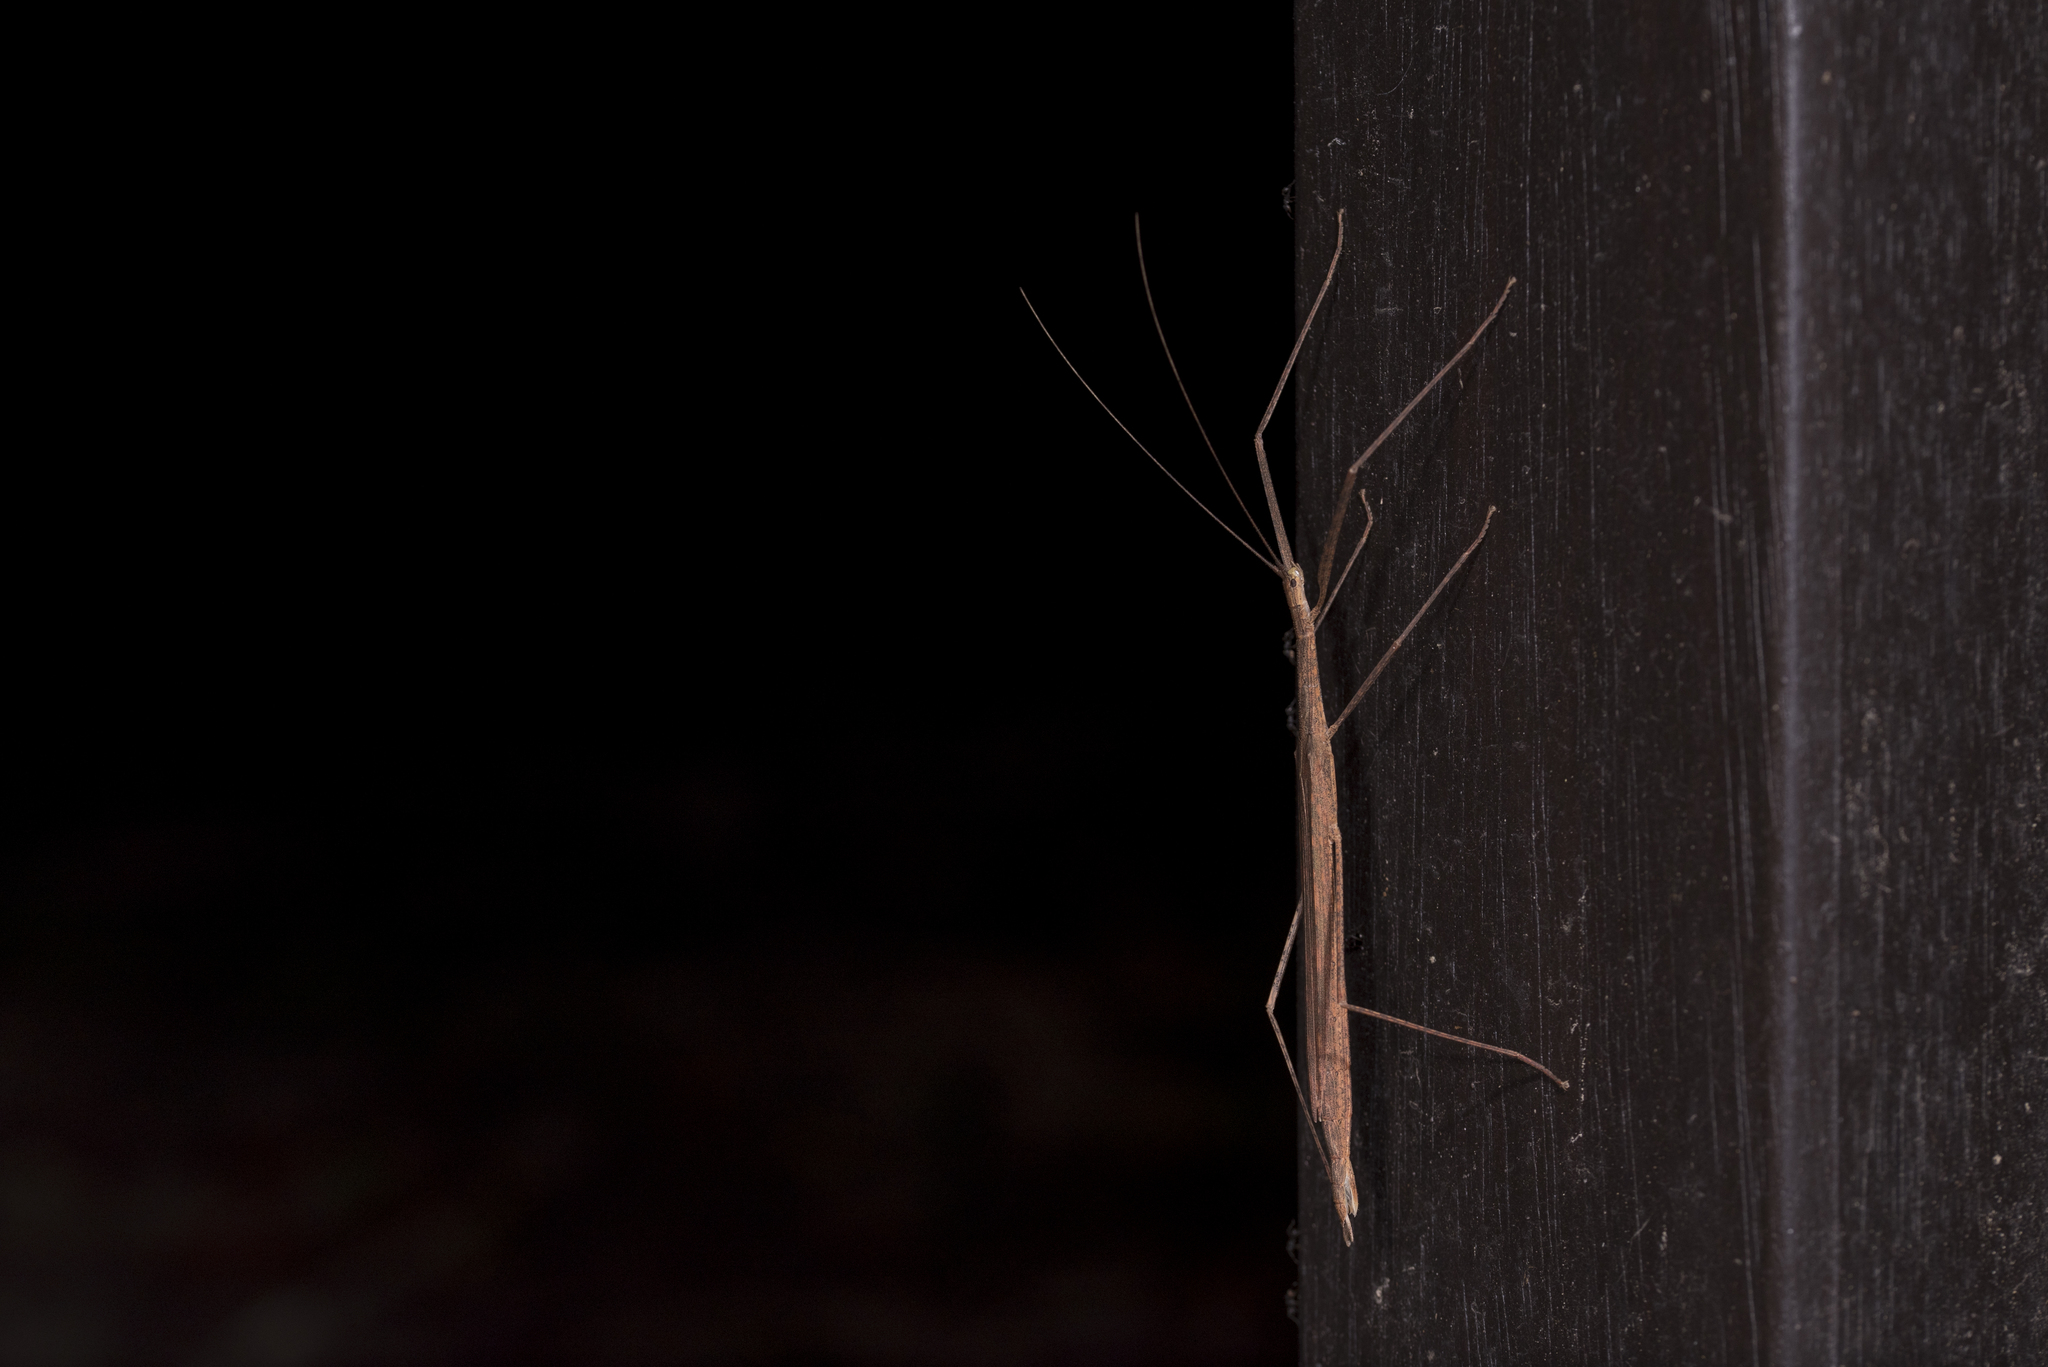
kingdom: Animalia
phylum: Arthropoda
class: Insecta
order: Phasmida
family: Lonchodidae
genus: Sipyloidea
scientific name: Sipyloidea sipylus
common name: Madagascan stick insect
